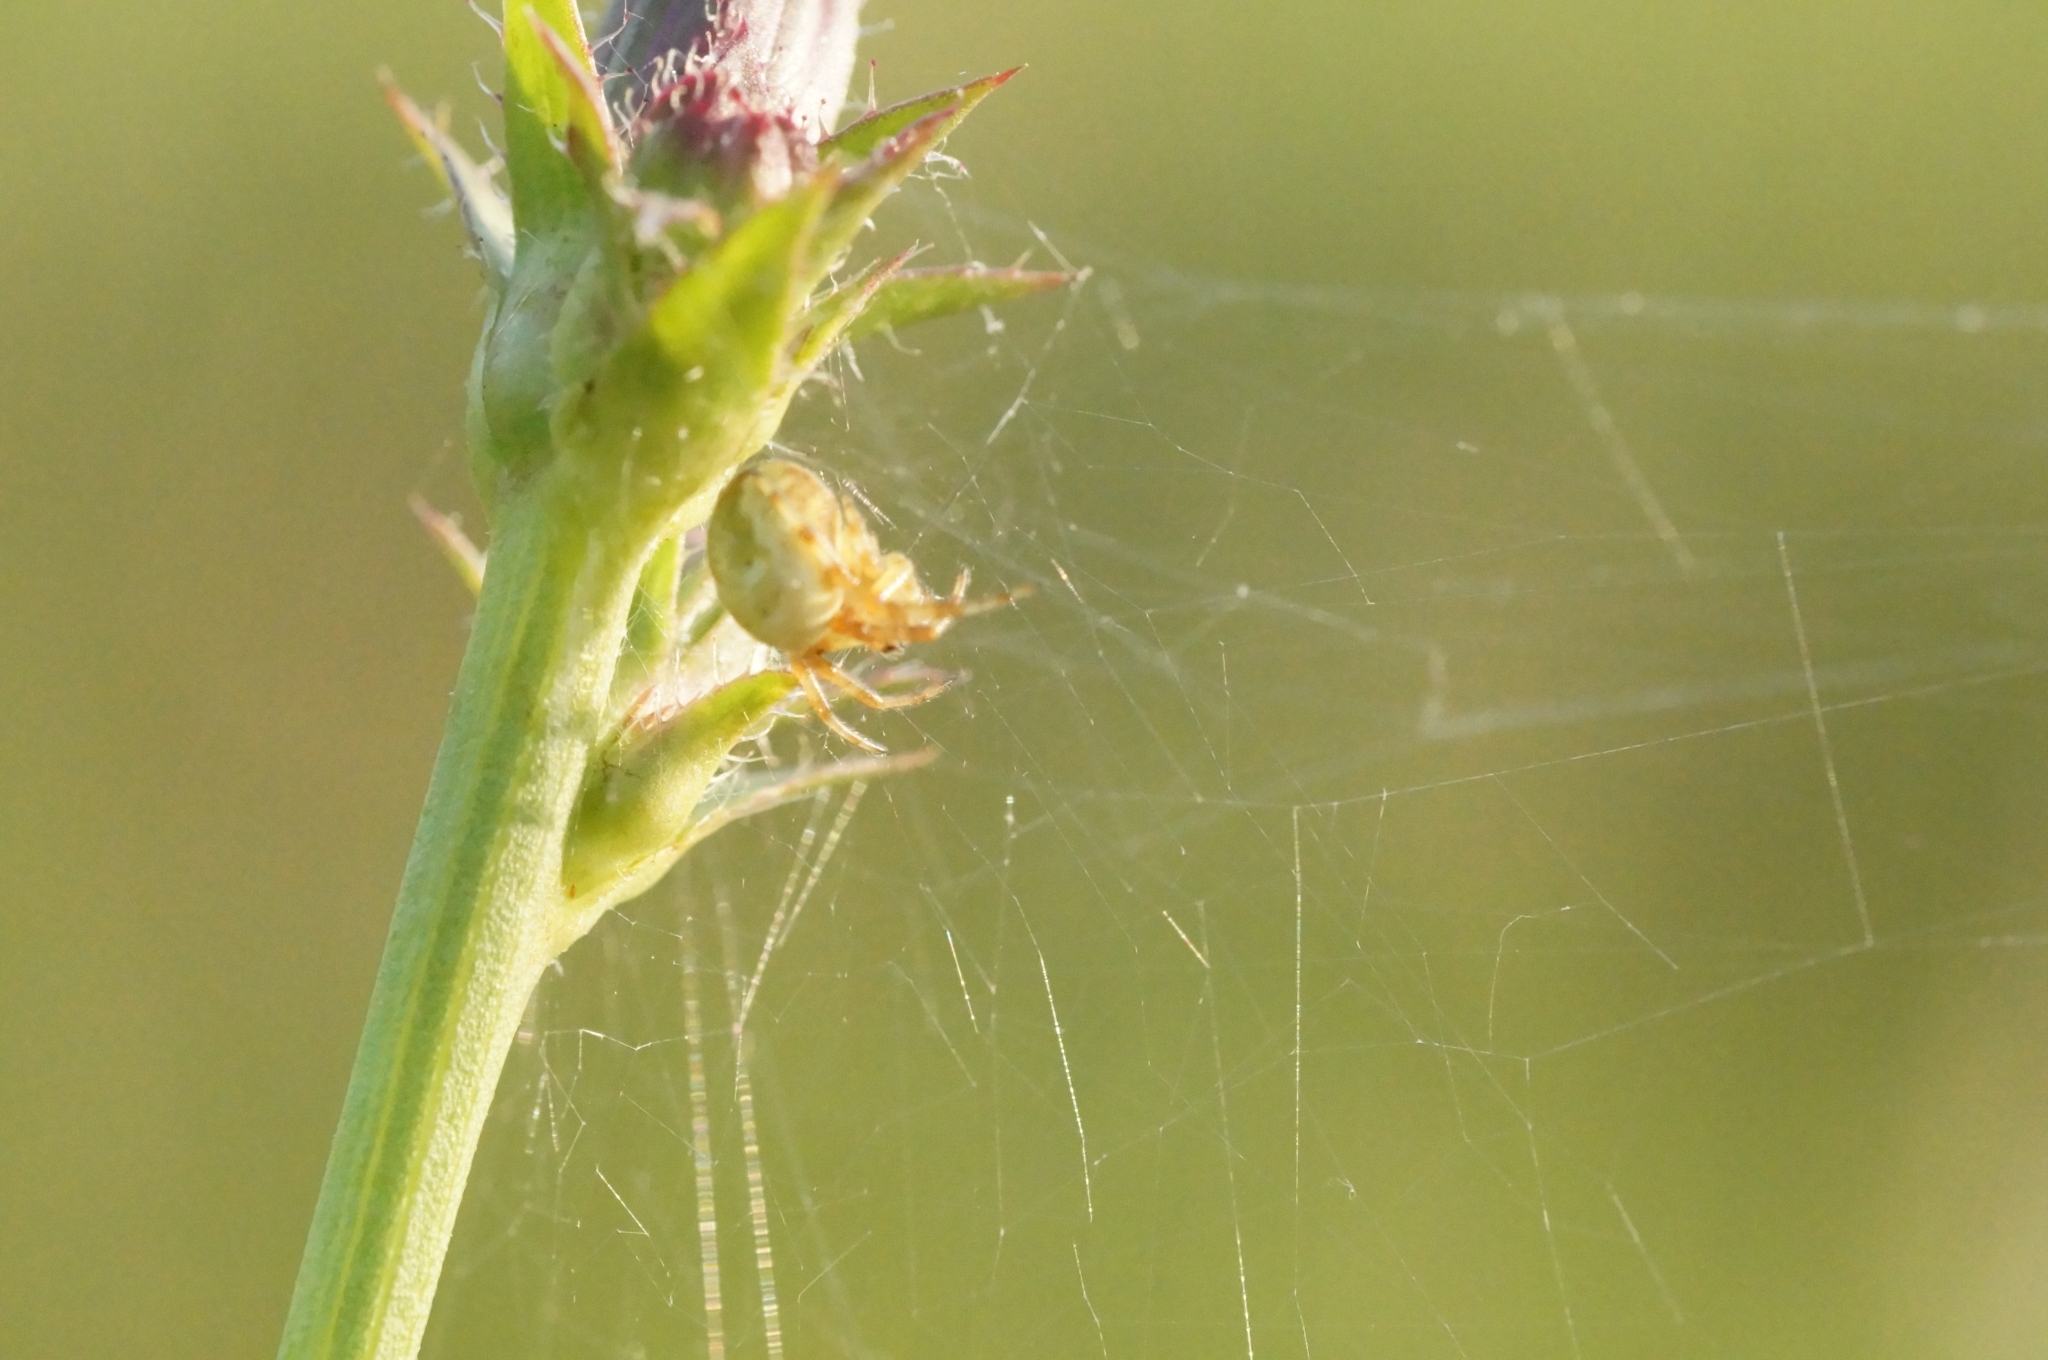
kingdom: Animalia
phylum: Arthropoda
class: Arachnida
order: Araneae
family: Araneidae
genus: Araneus
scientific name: Araneus quadratus
